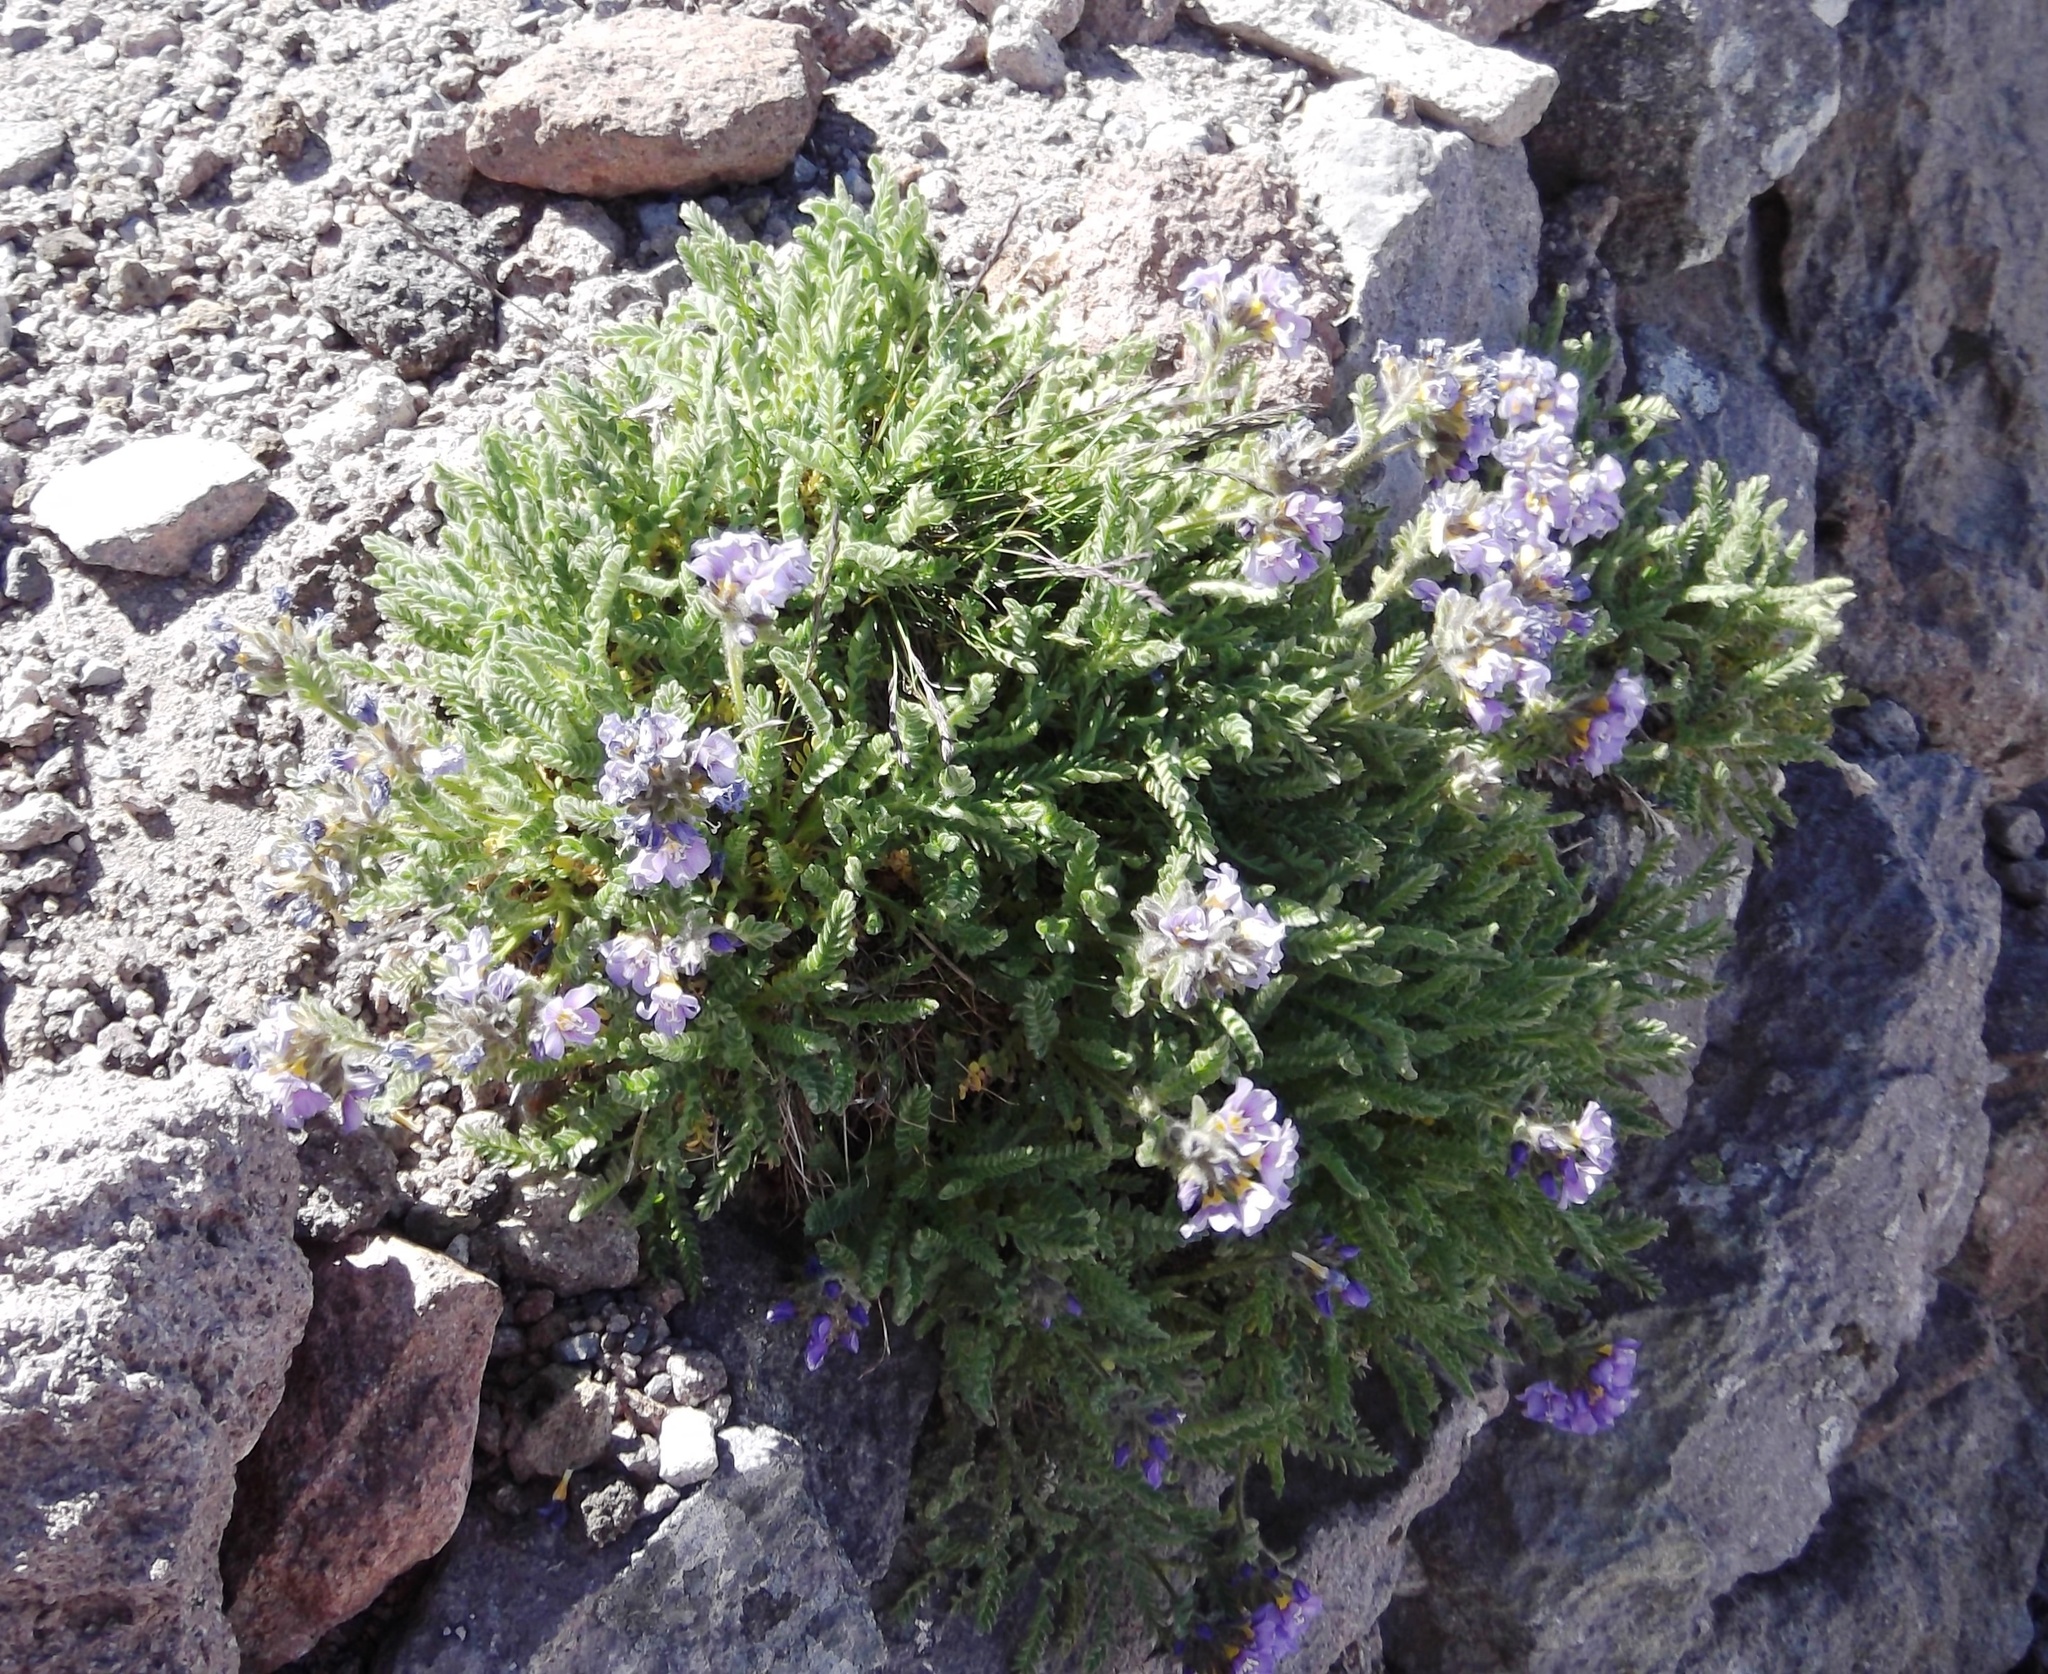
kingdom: Plantae
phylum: Tracheophyta
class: Magnoliopsida
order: Ericales
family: Polemoniaceae
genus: Polemonium
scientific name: Polemonium elegans
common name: Elegant jacob's-ladder
